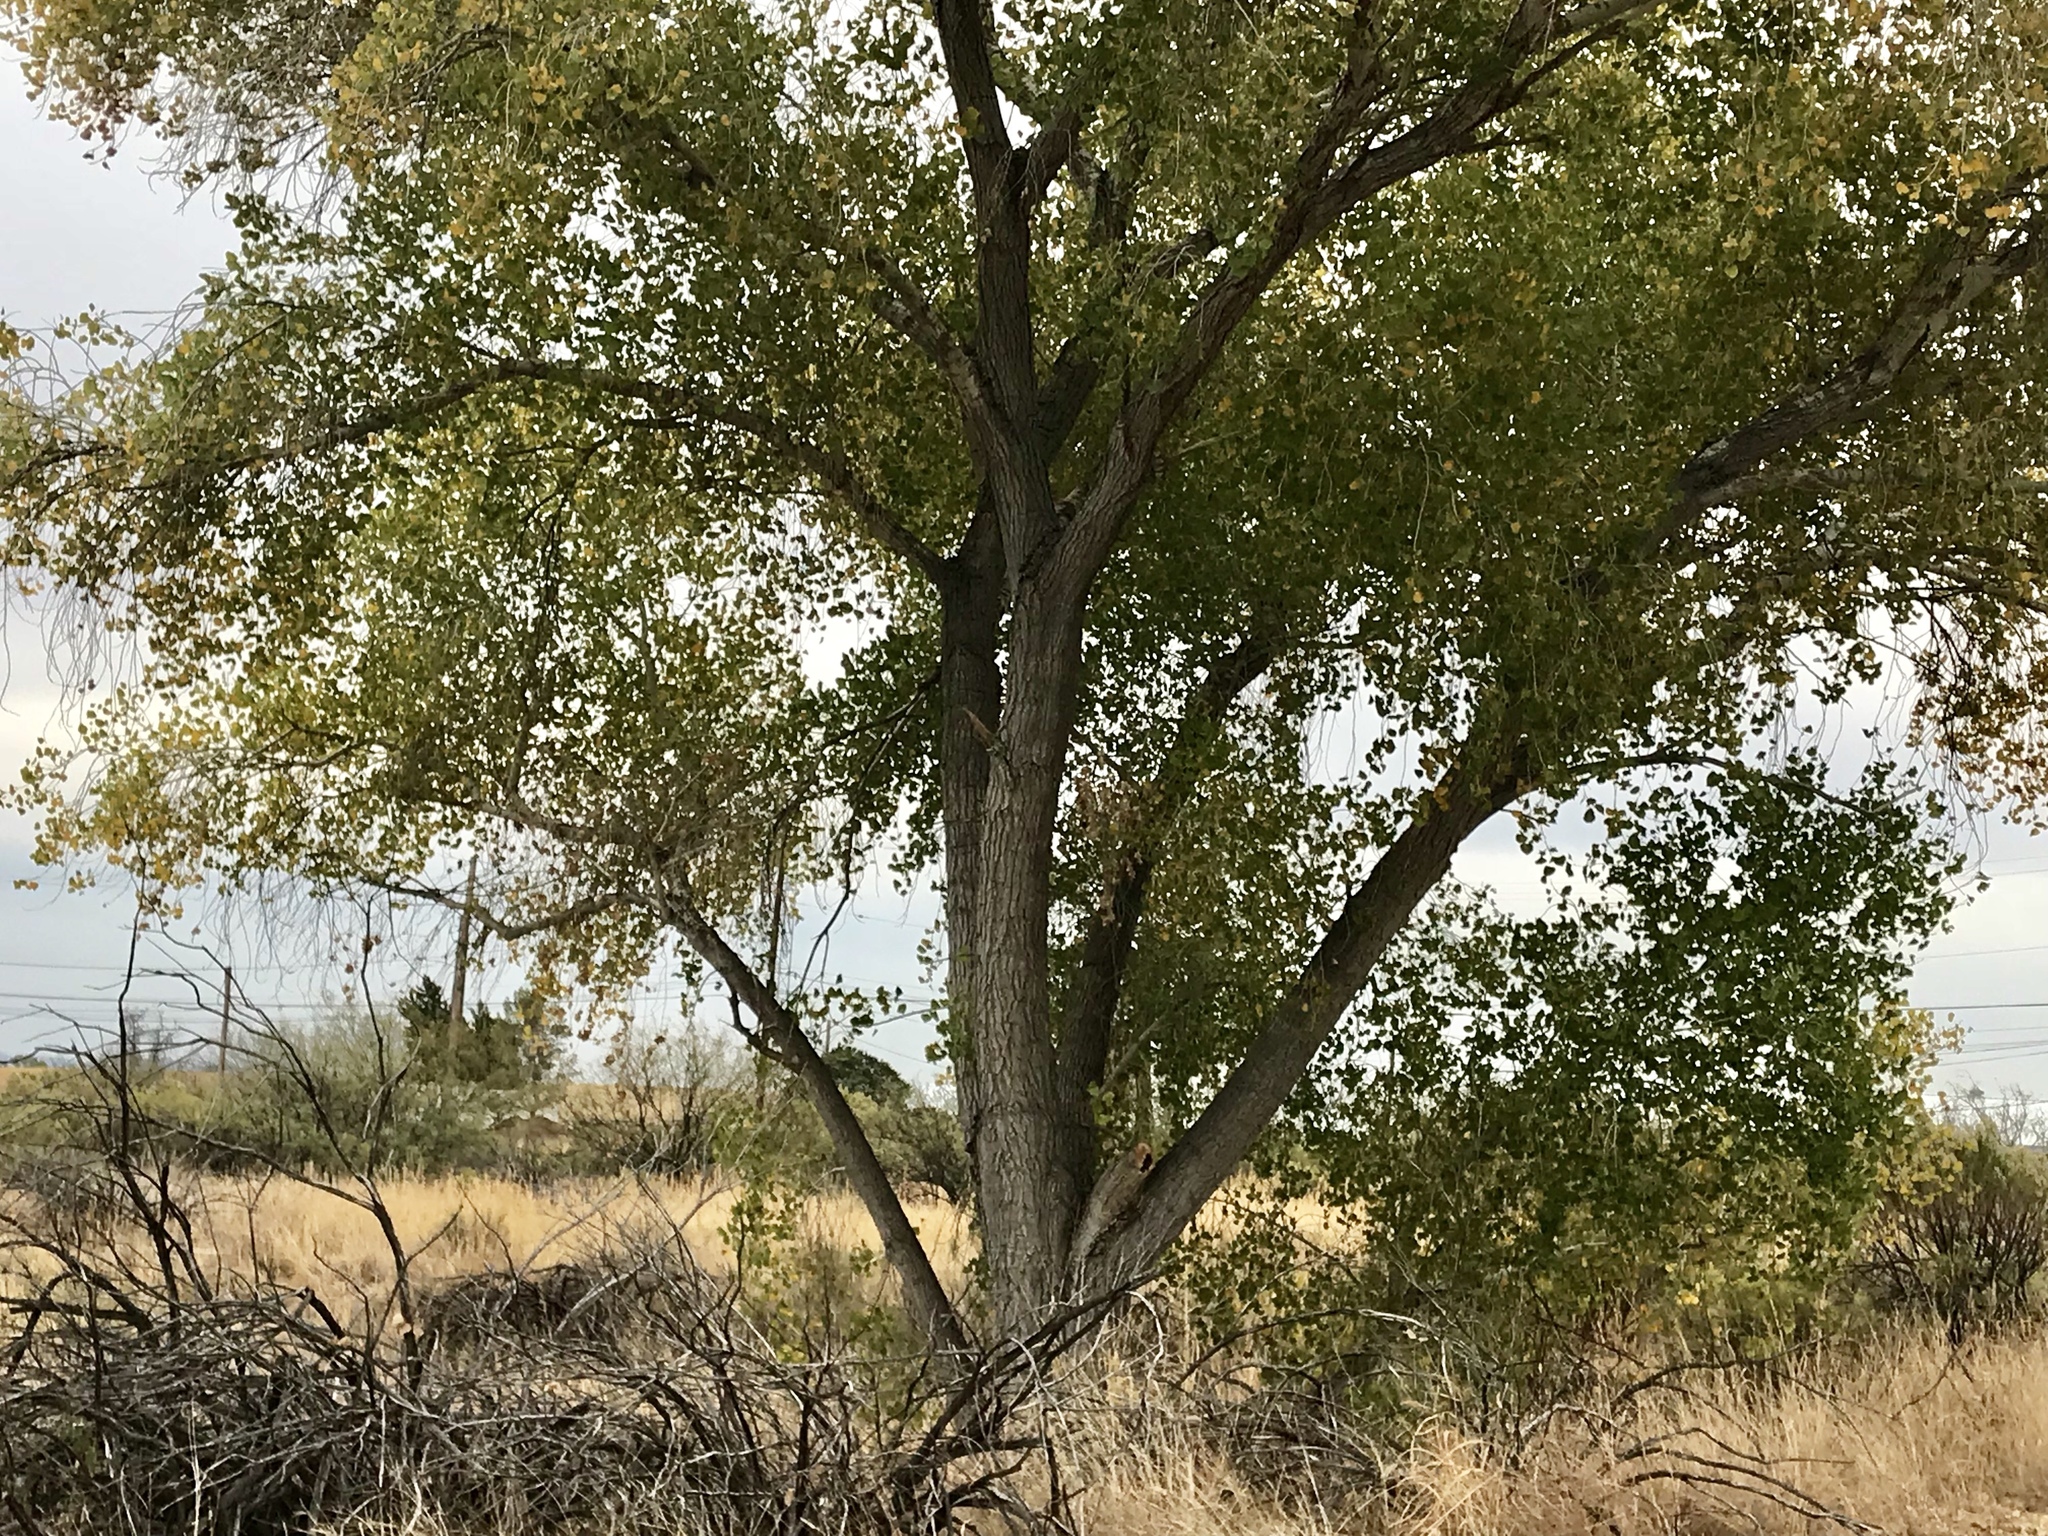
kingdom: Plantae
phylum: Tracheophyta
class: Magnoliopsida
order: Malpighiales
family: Salicaceae
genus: Populus
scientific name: Populus fremontii
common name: Fremont's cottonwood
